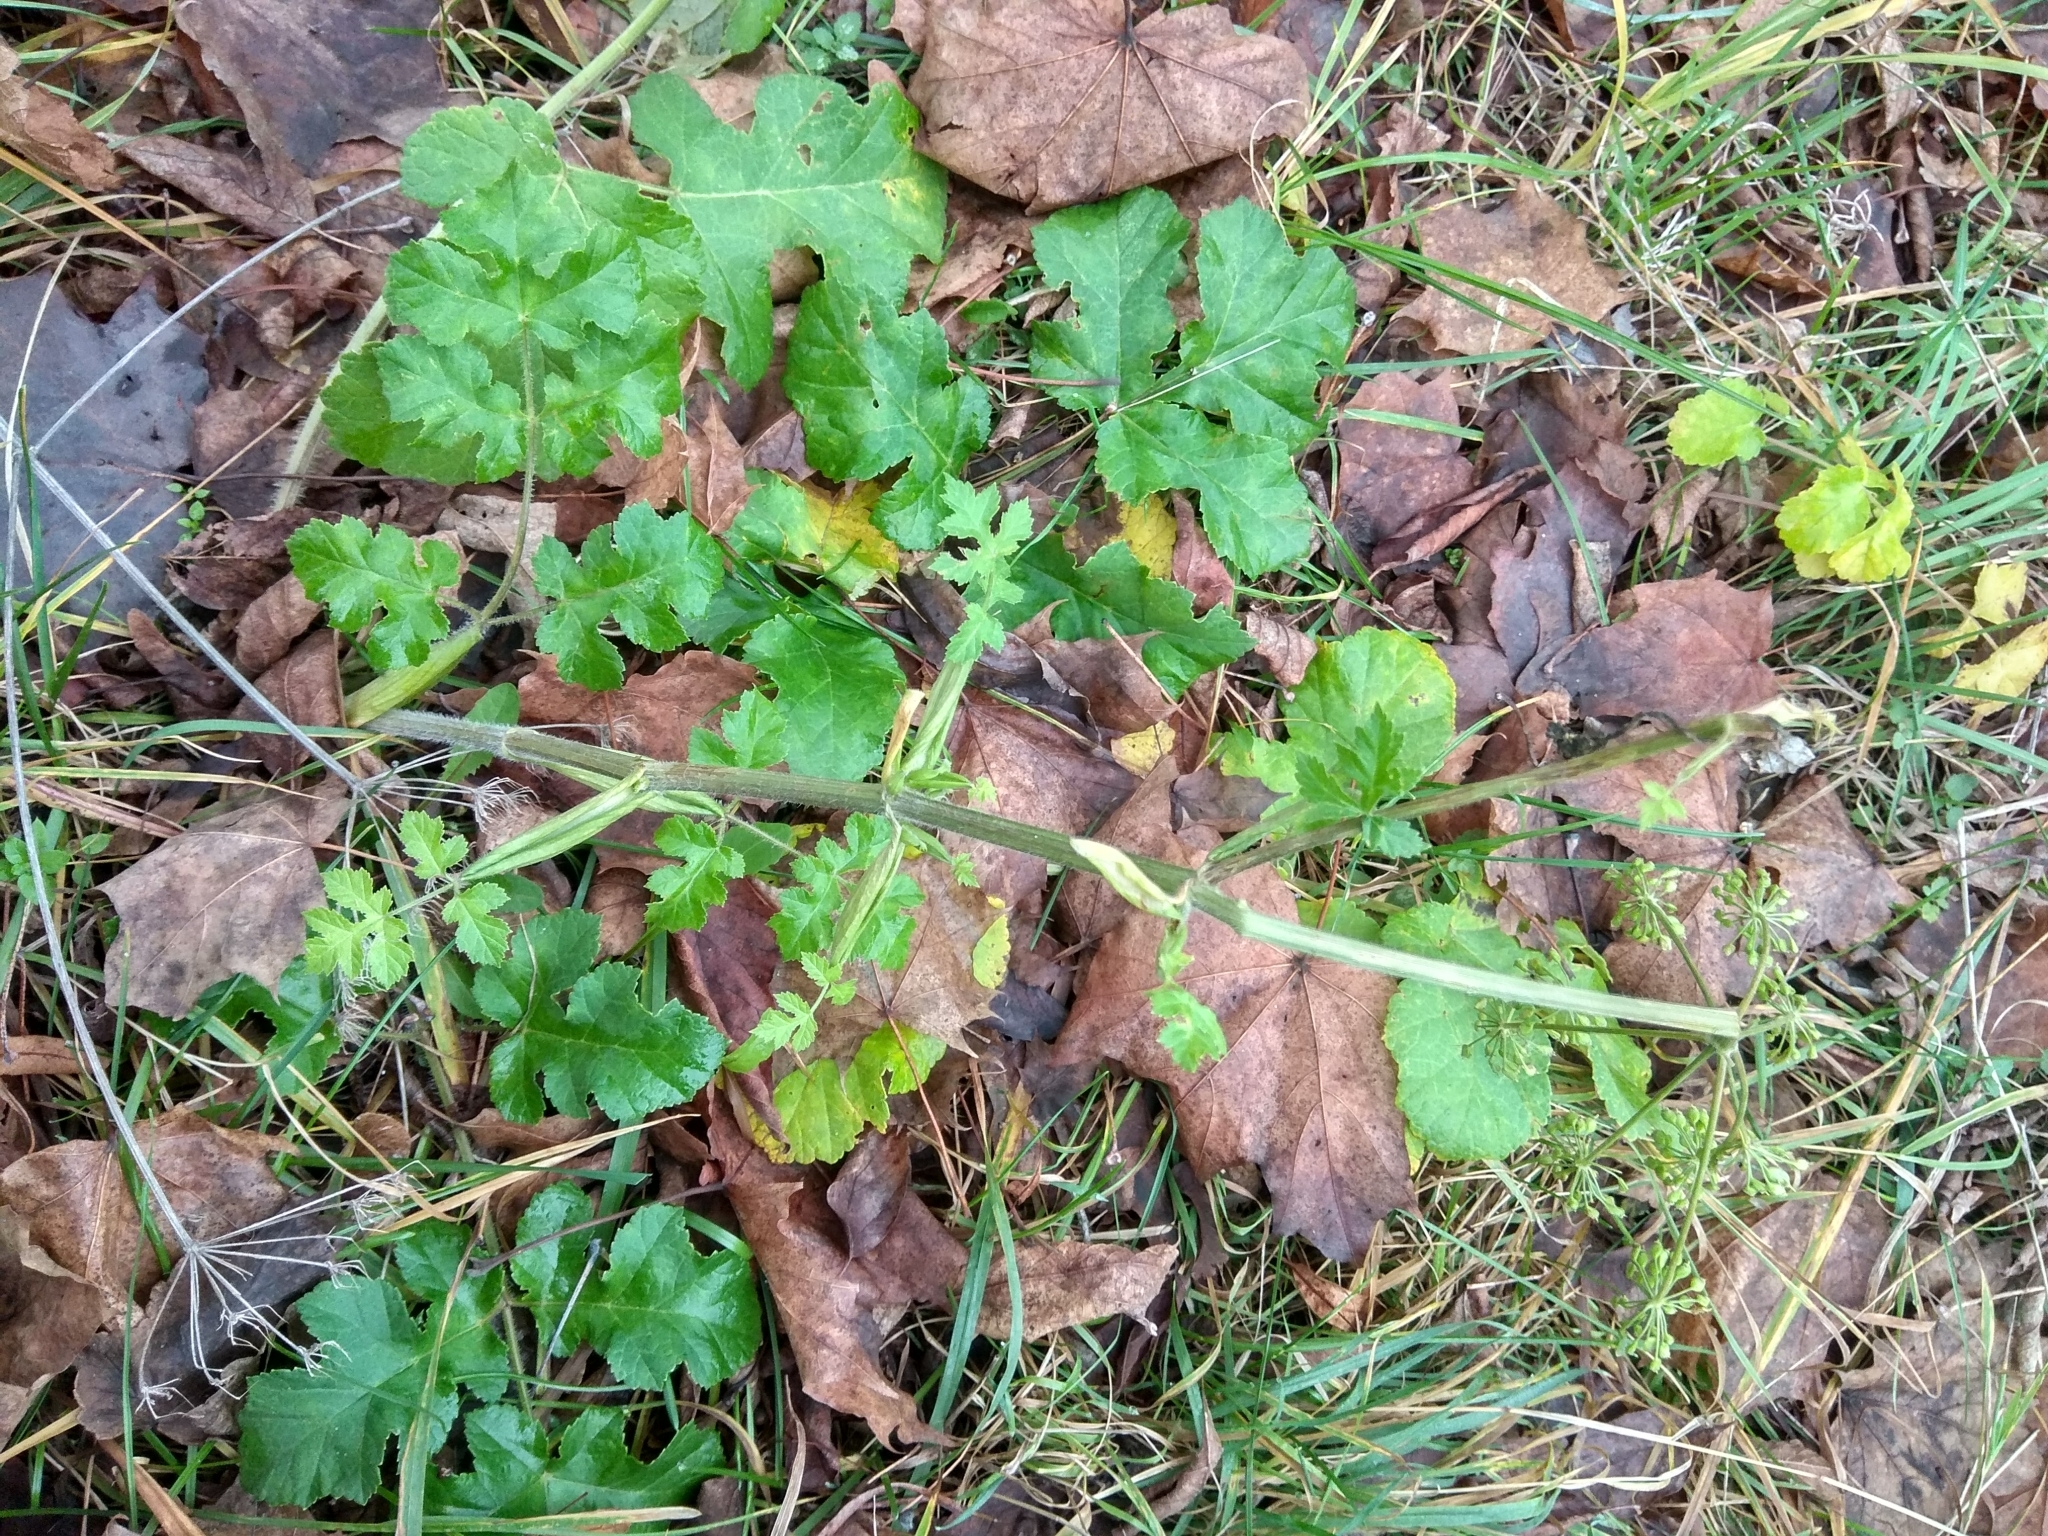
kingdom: Plantae
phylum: Tracheophyta
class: Magnoliopsida
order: Apiales
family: Apiaceae
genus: Heracleum
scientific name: Heracleum sphondylium
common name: Hogweed
